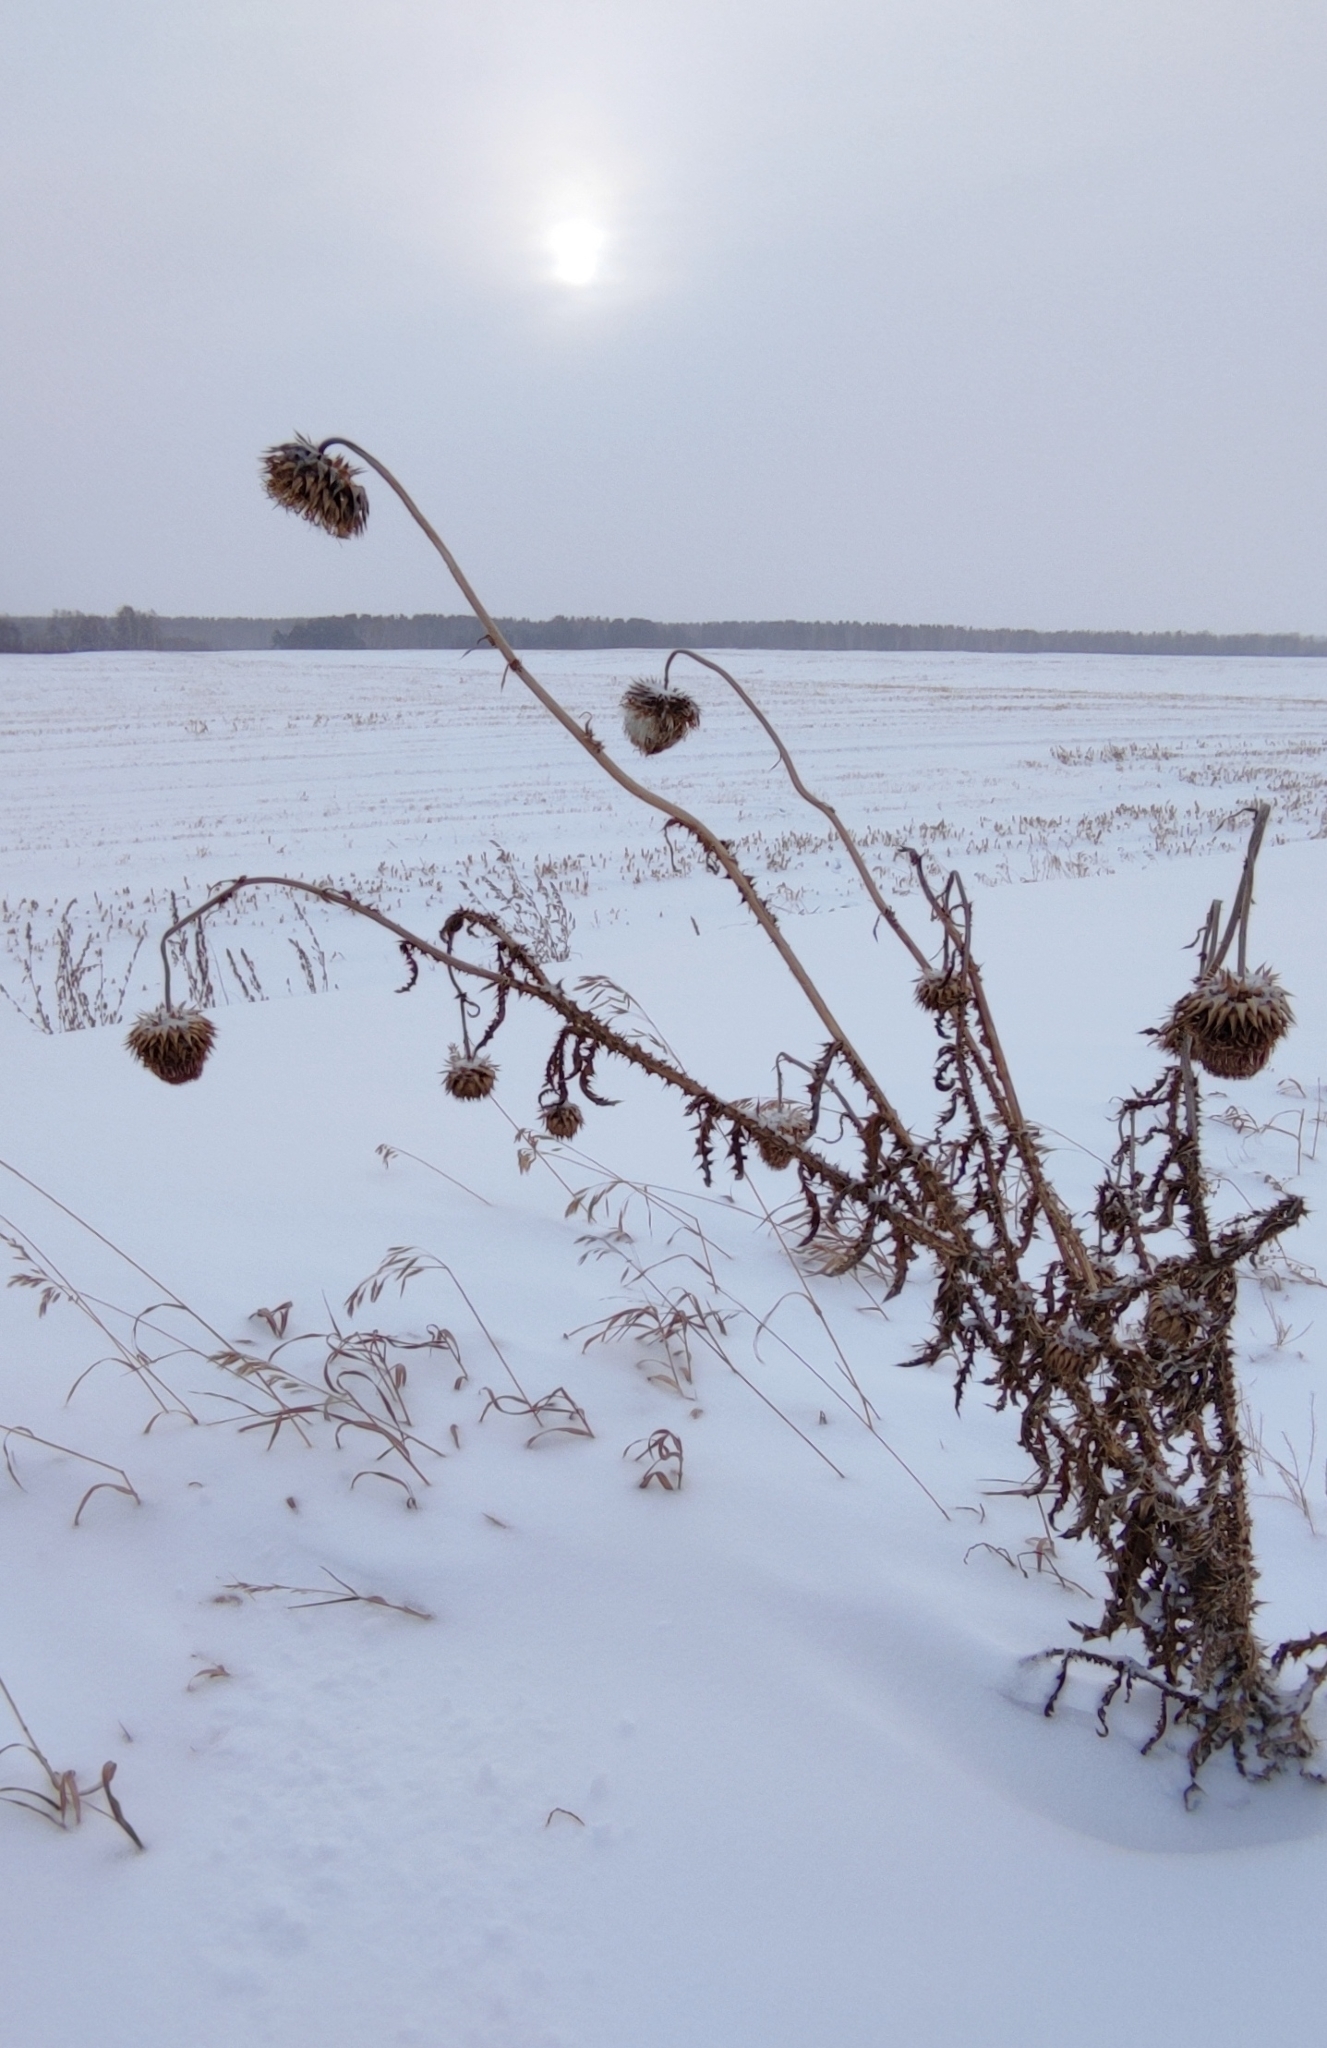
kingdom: Plantae
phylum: Tracheophyta
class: Magnoliopsida
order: Asterales
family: Asteraceae
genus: Carduus
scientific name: Carduus nutans
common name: Musk thistle
